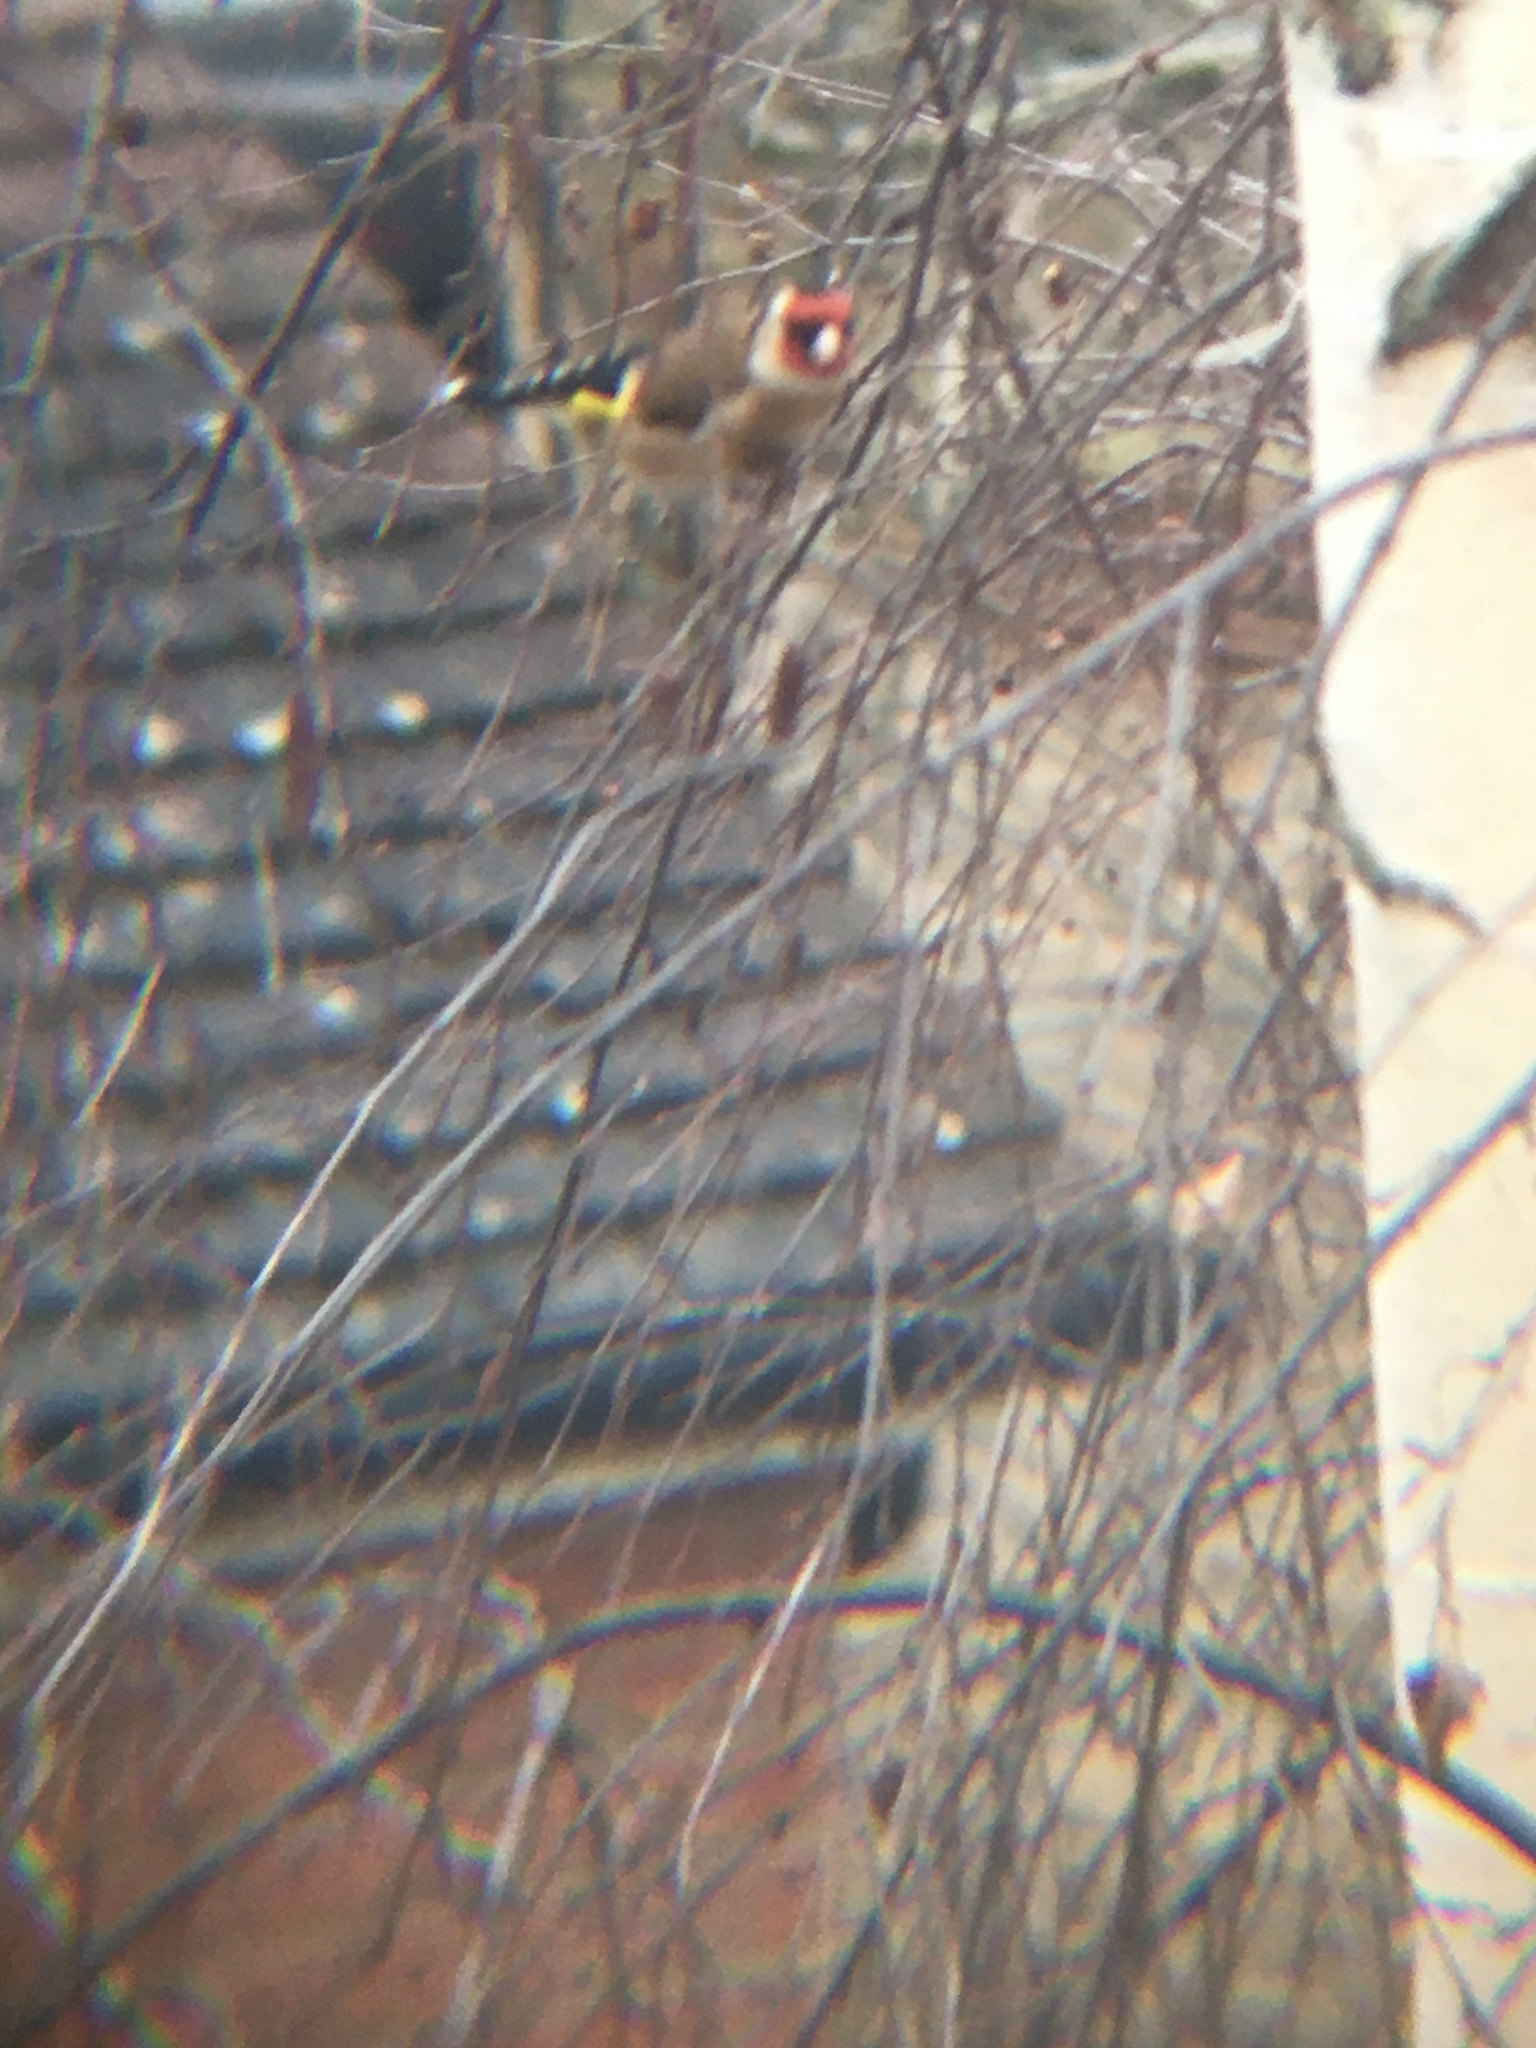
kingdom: Animalia
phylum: Chordata
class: Aves
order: Passeriformes
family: Fringillidae
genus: Carduelis
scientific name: Carduelis carduelis
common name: European goldfinch
